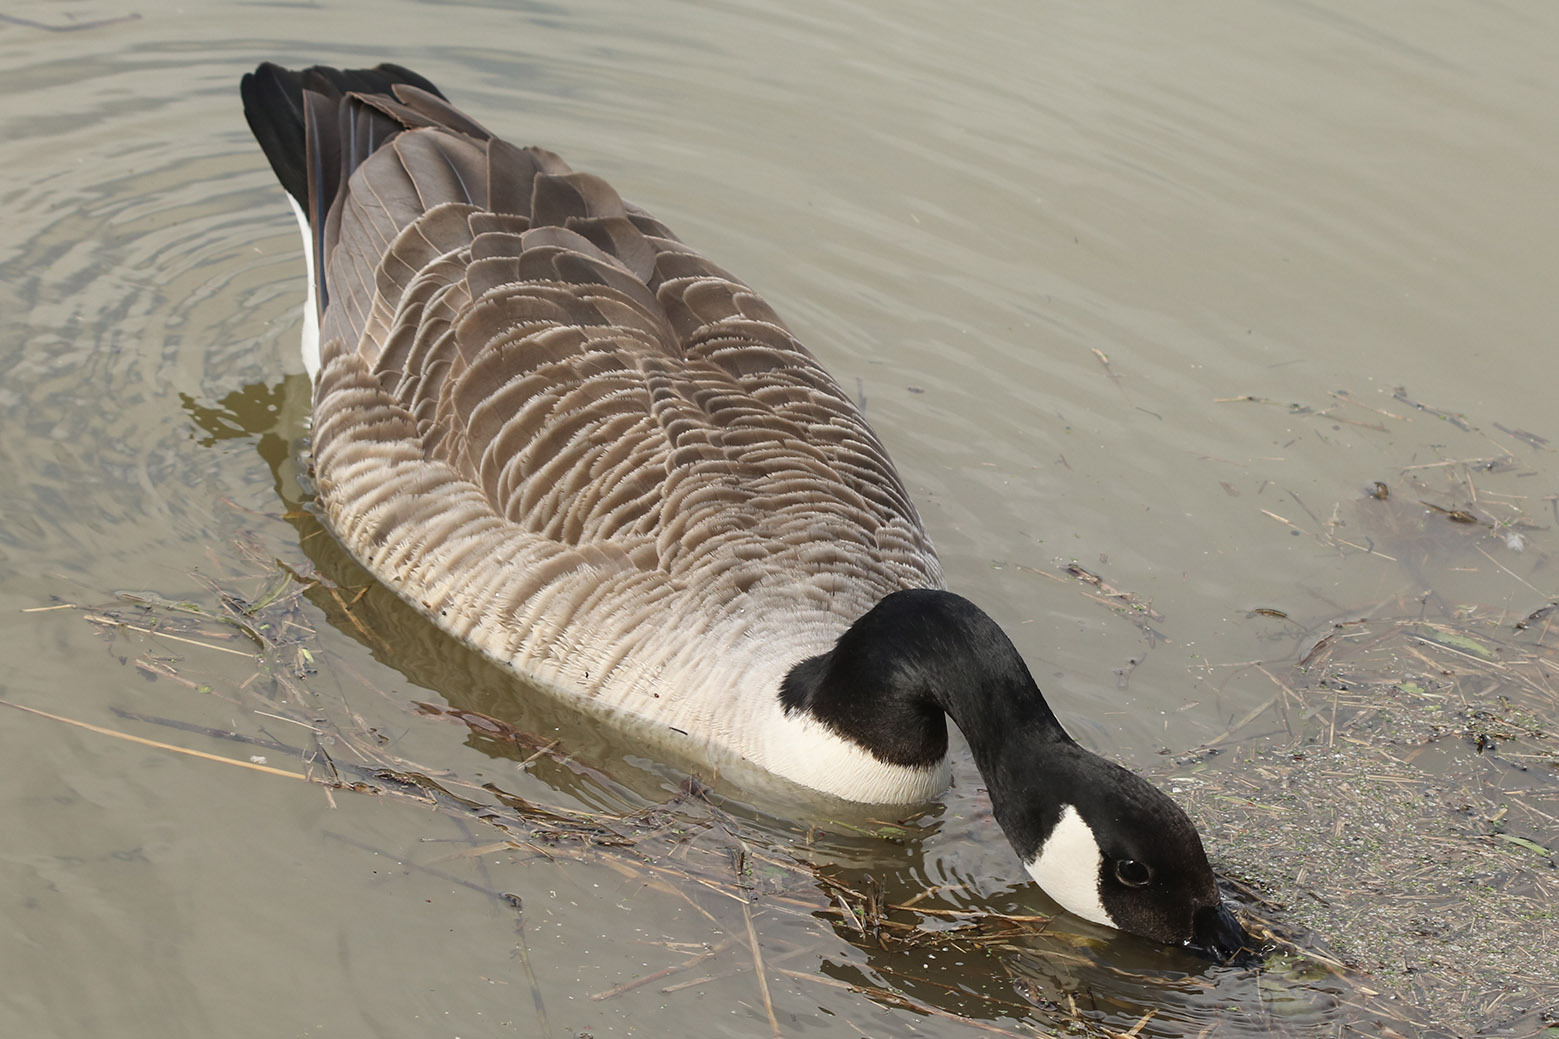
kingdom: Animalia
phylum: Chordata
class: Aves
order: Anseriformes
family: Anatidae
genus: Branta
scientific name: Branta canadensis
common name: Canada goose
